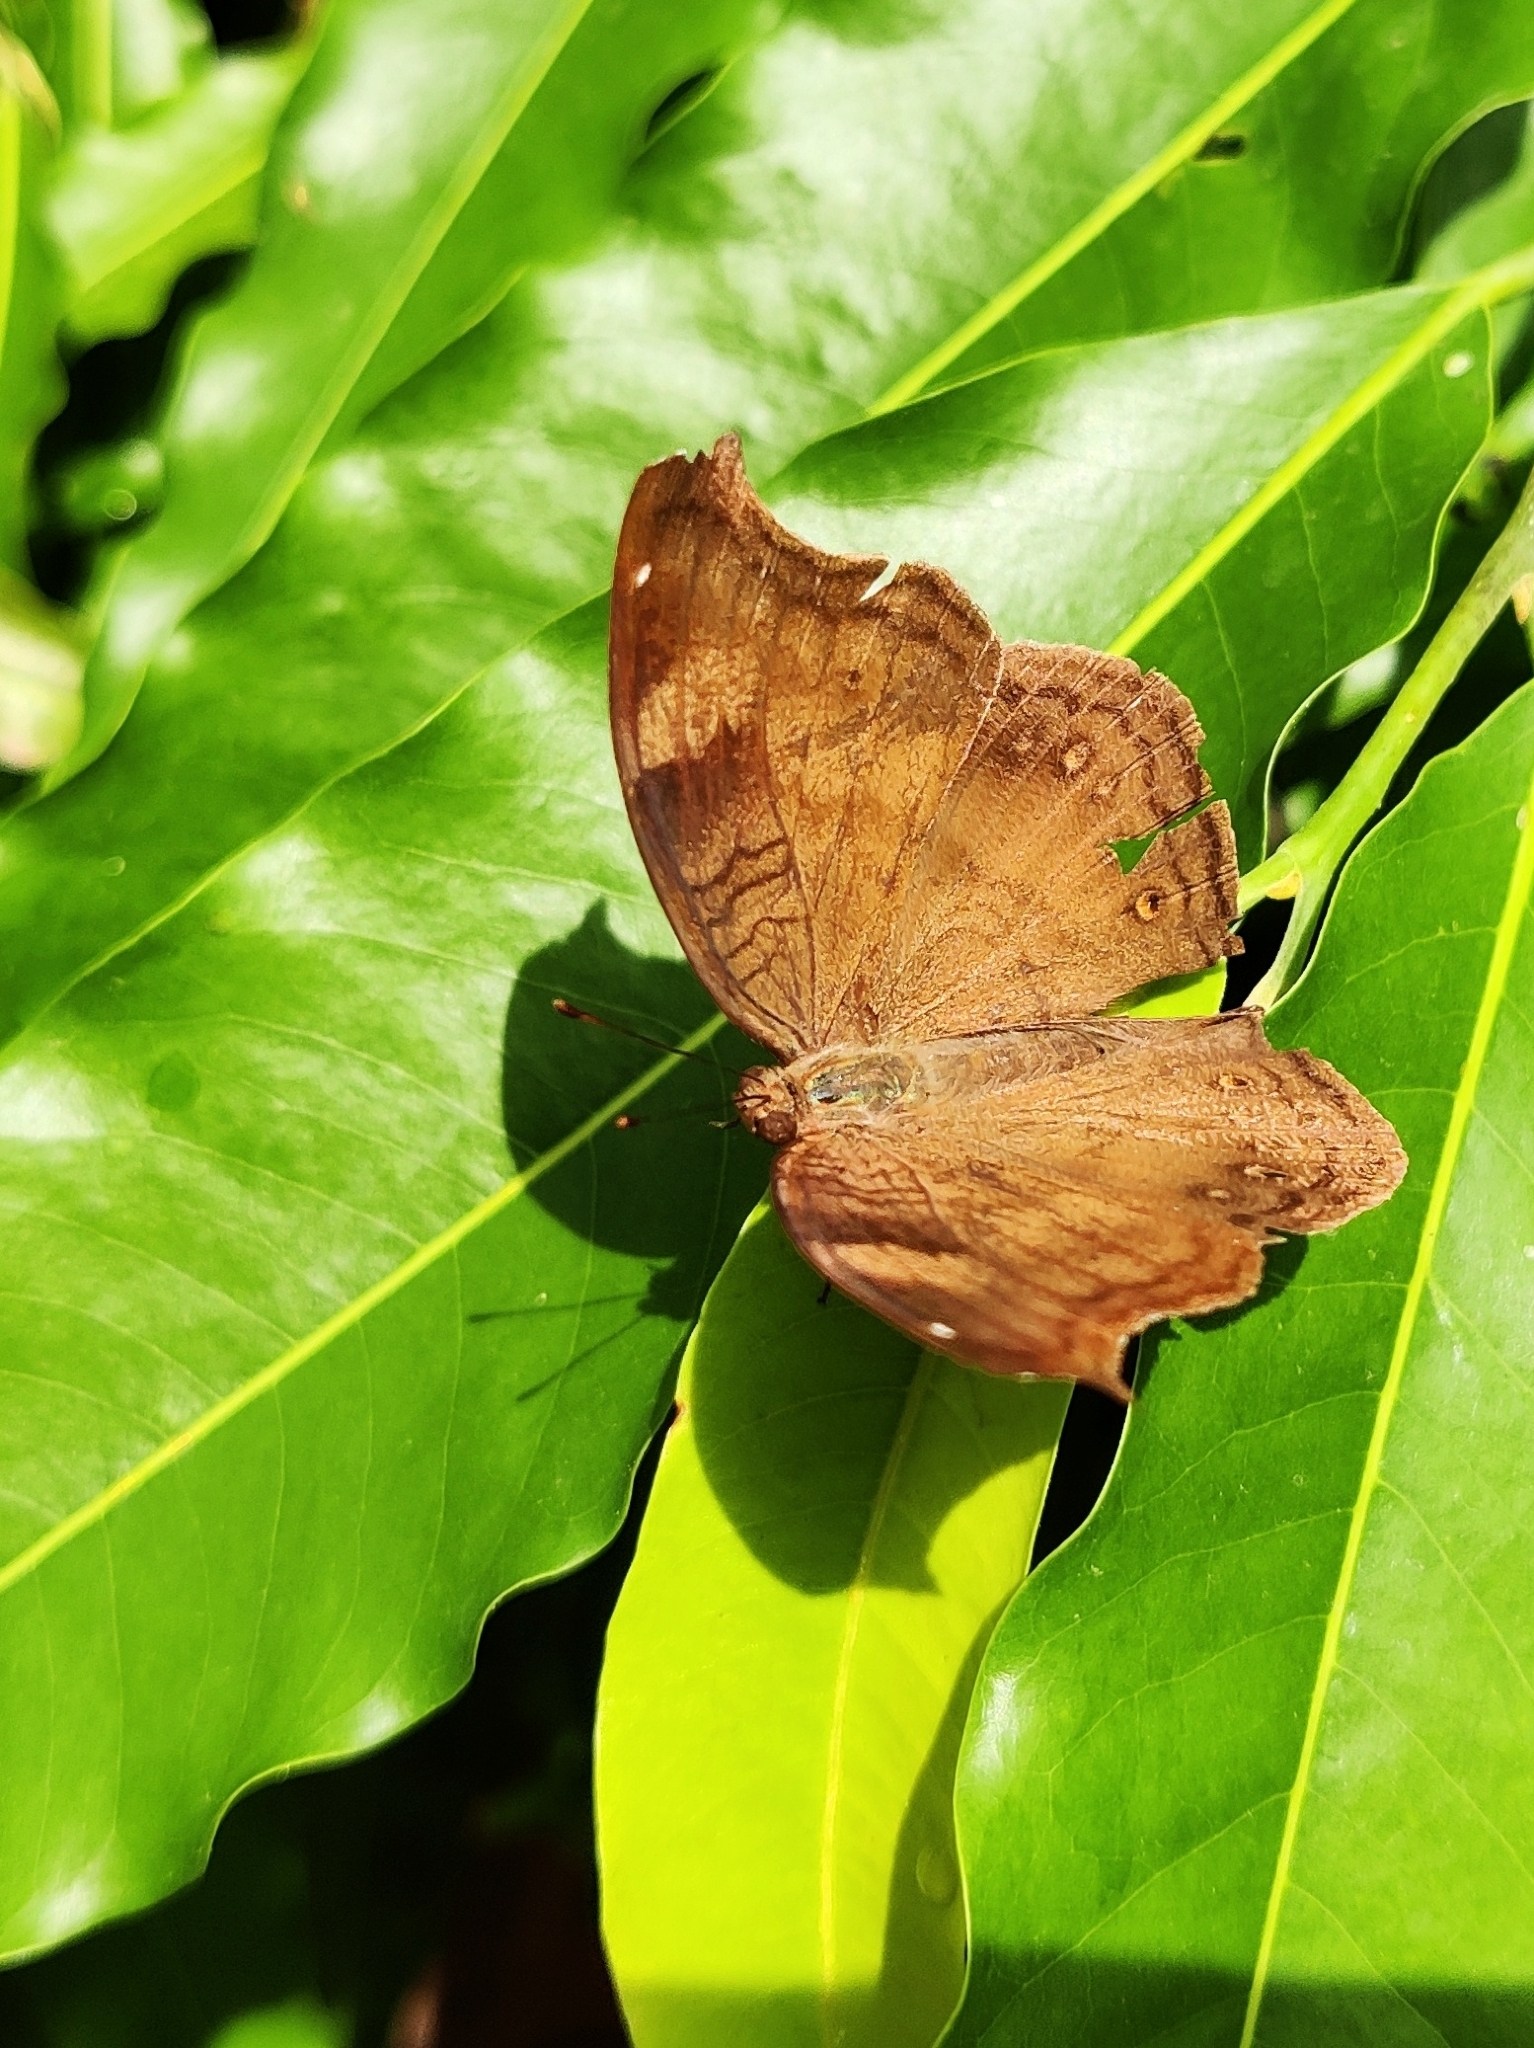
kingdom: Animalia
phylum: Arthropoda
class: Insecta
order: Lepidoptera
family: Nymphalidae
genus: Junonia
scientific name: Junonia iphita
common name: Chocolate pansy
